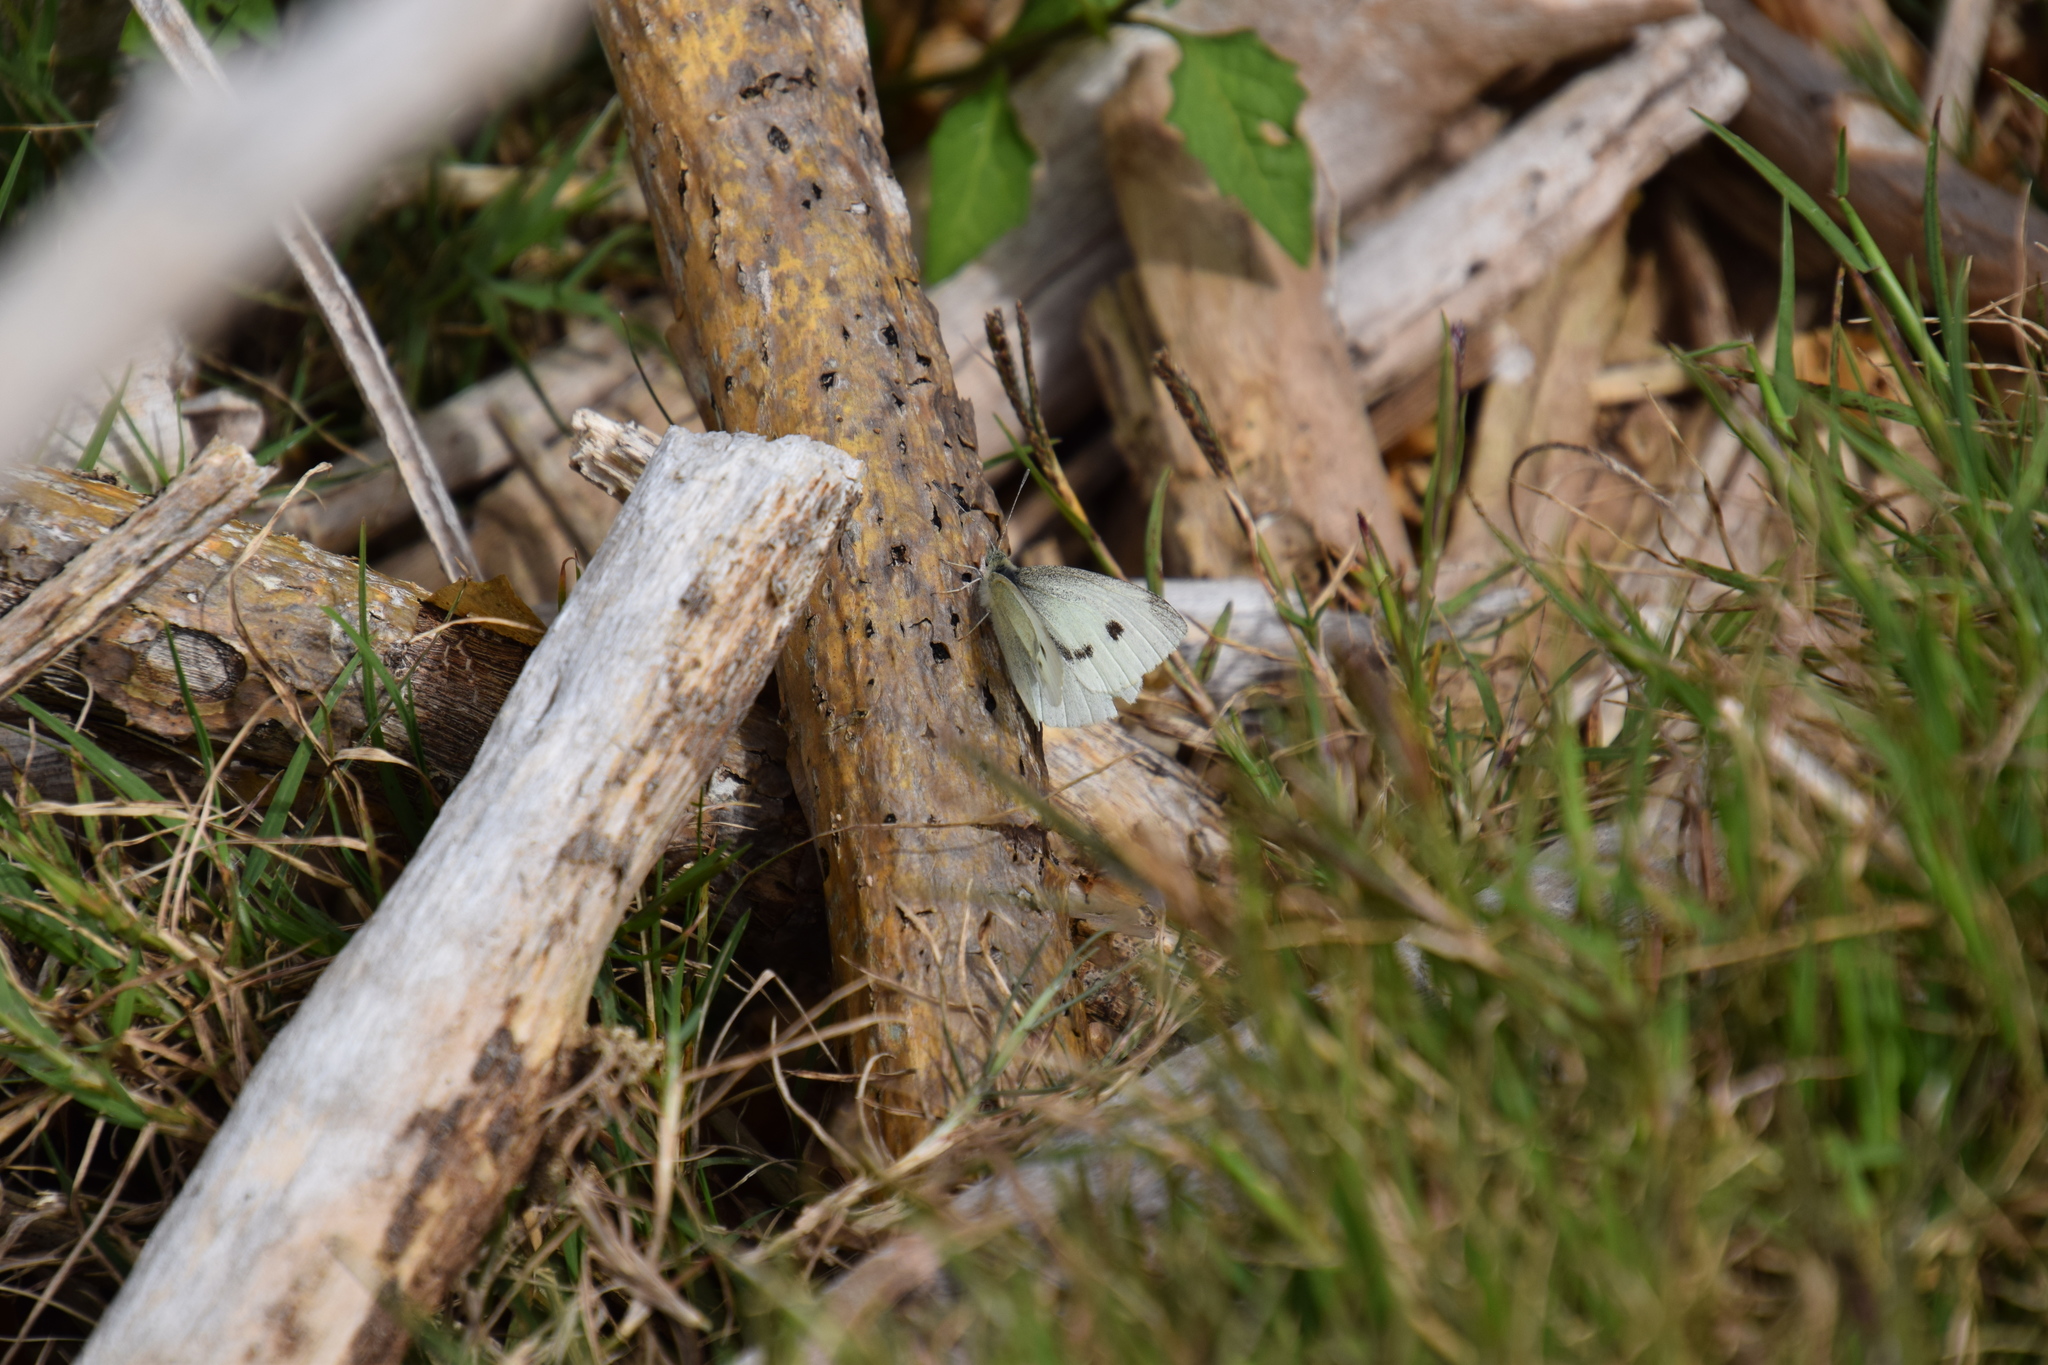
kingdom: Animalia
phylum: Arthropoda
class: Insecta
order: Lepidoptera
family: Pieridae
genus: Pieris
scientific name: Pieris rapae
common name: Small white
